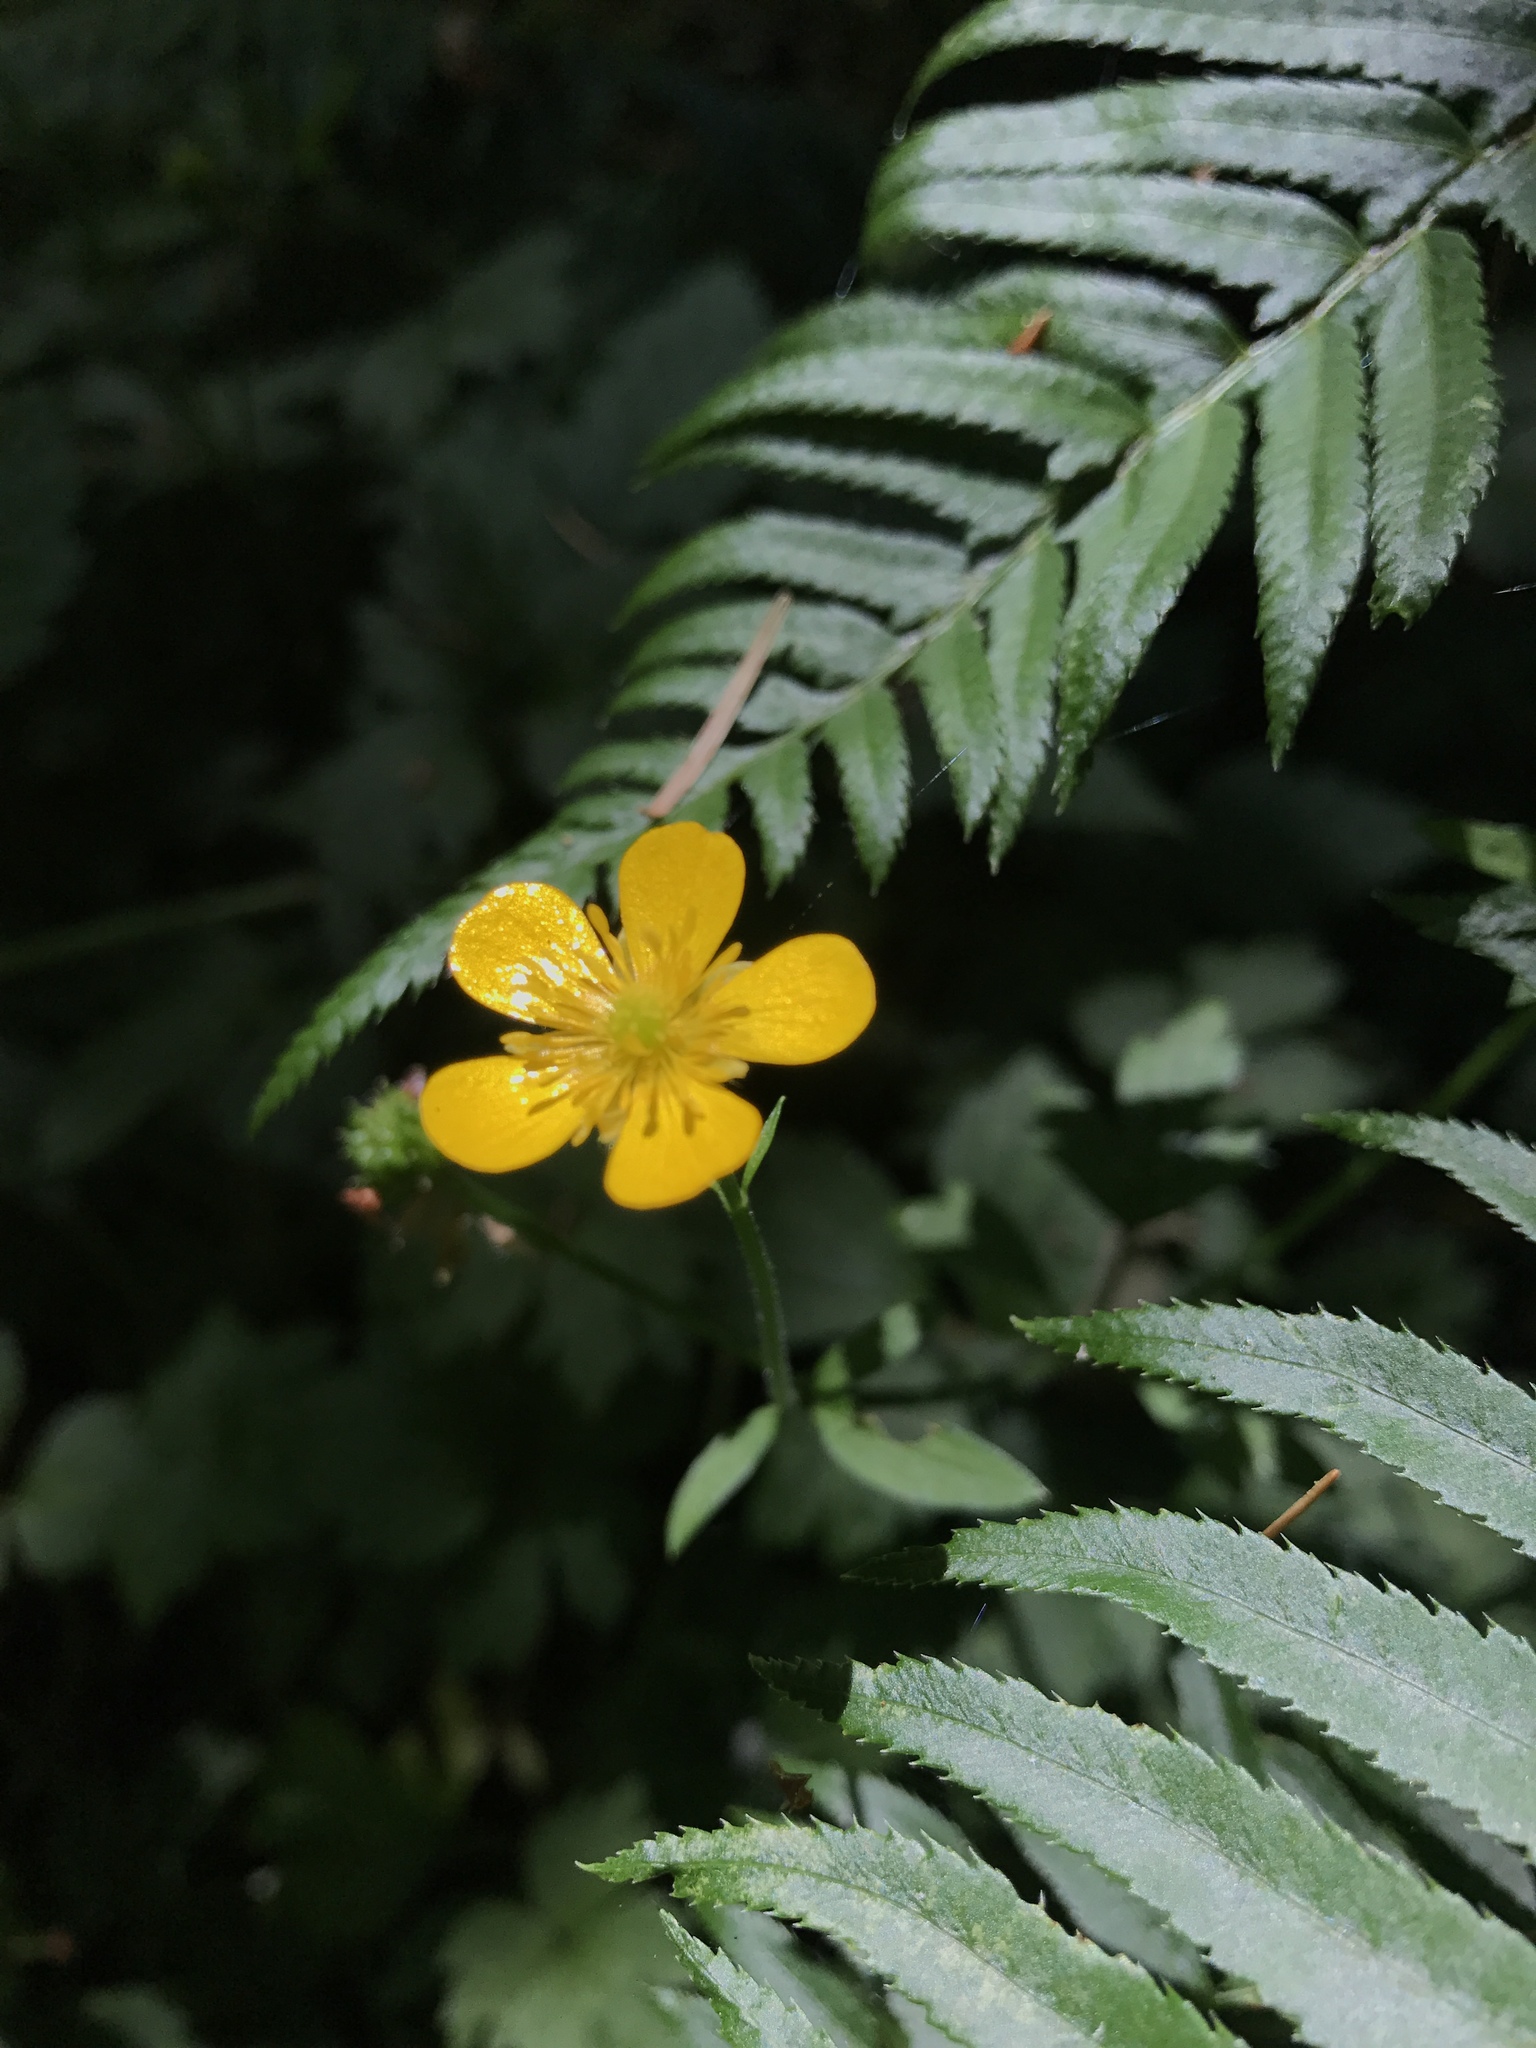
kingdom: Plantae
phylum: Tracheophyta
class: Magnoliopsida
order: Ranunculales
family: Ranunculaceae
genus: Ranunculus
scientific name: Ranunculus repens
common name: Creeping buttercup
